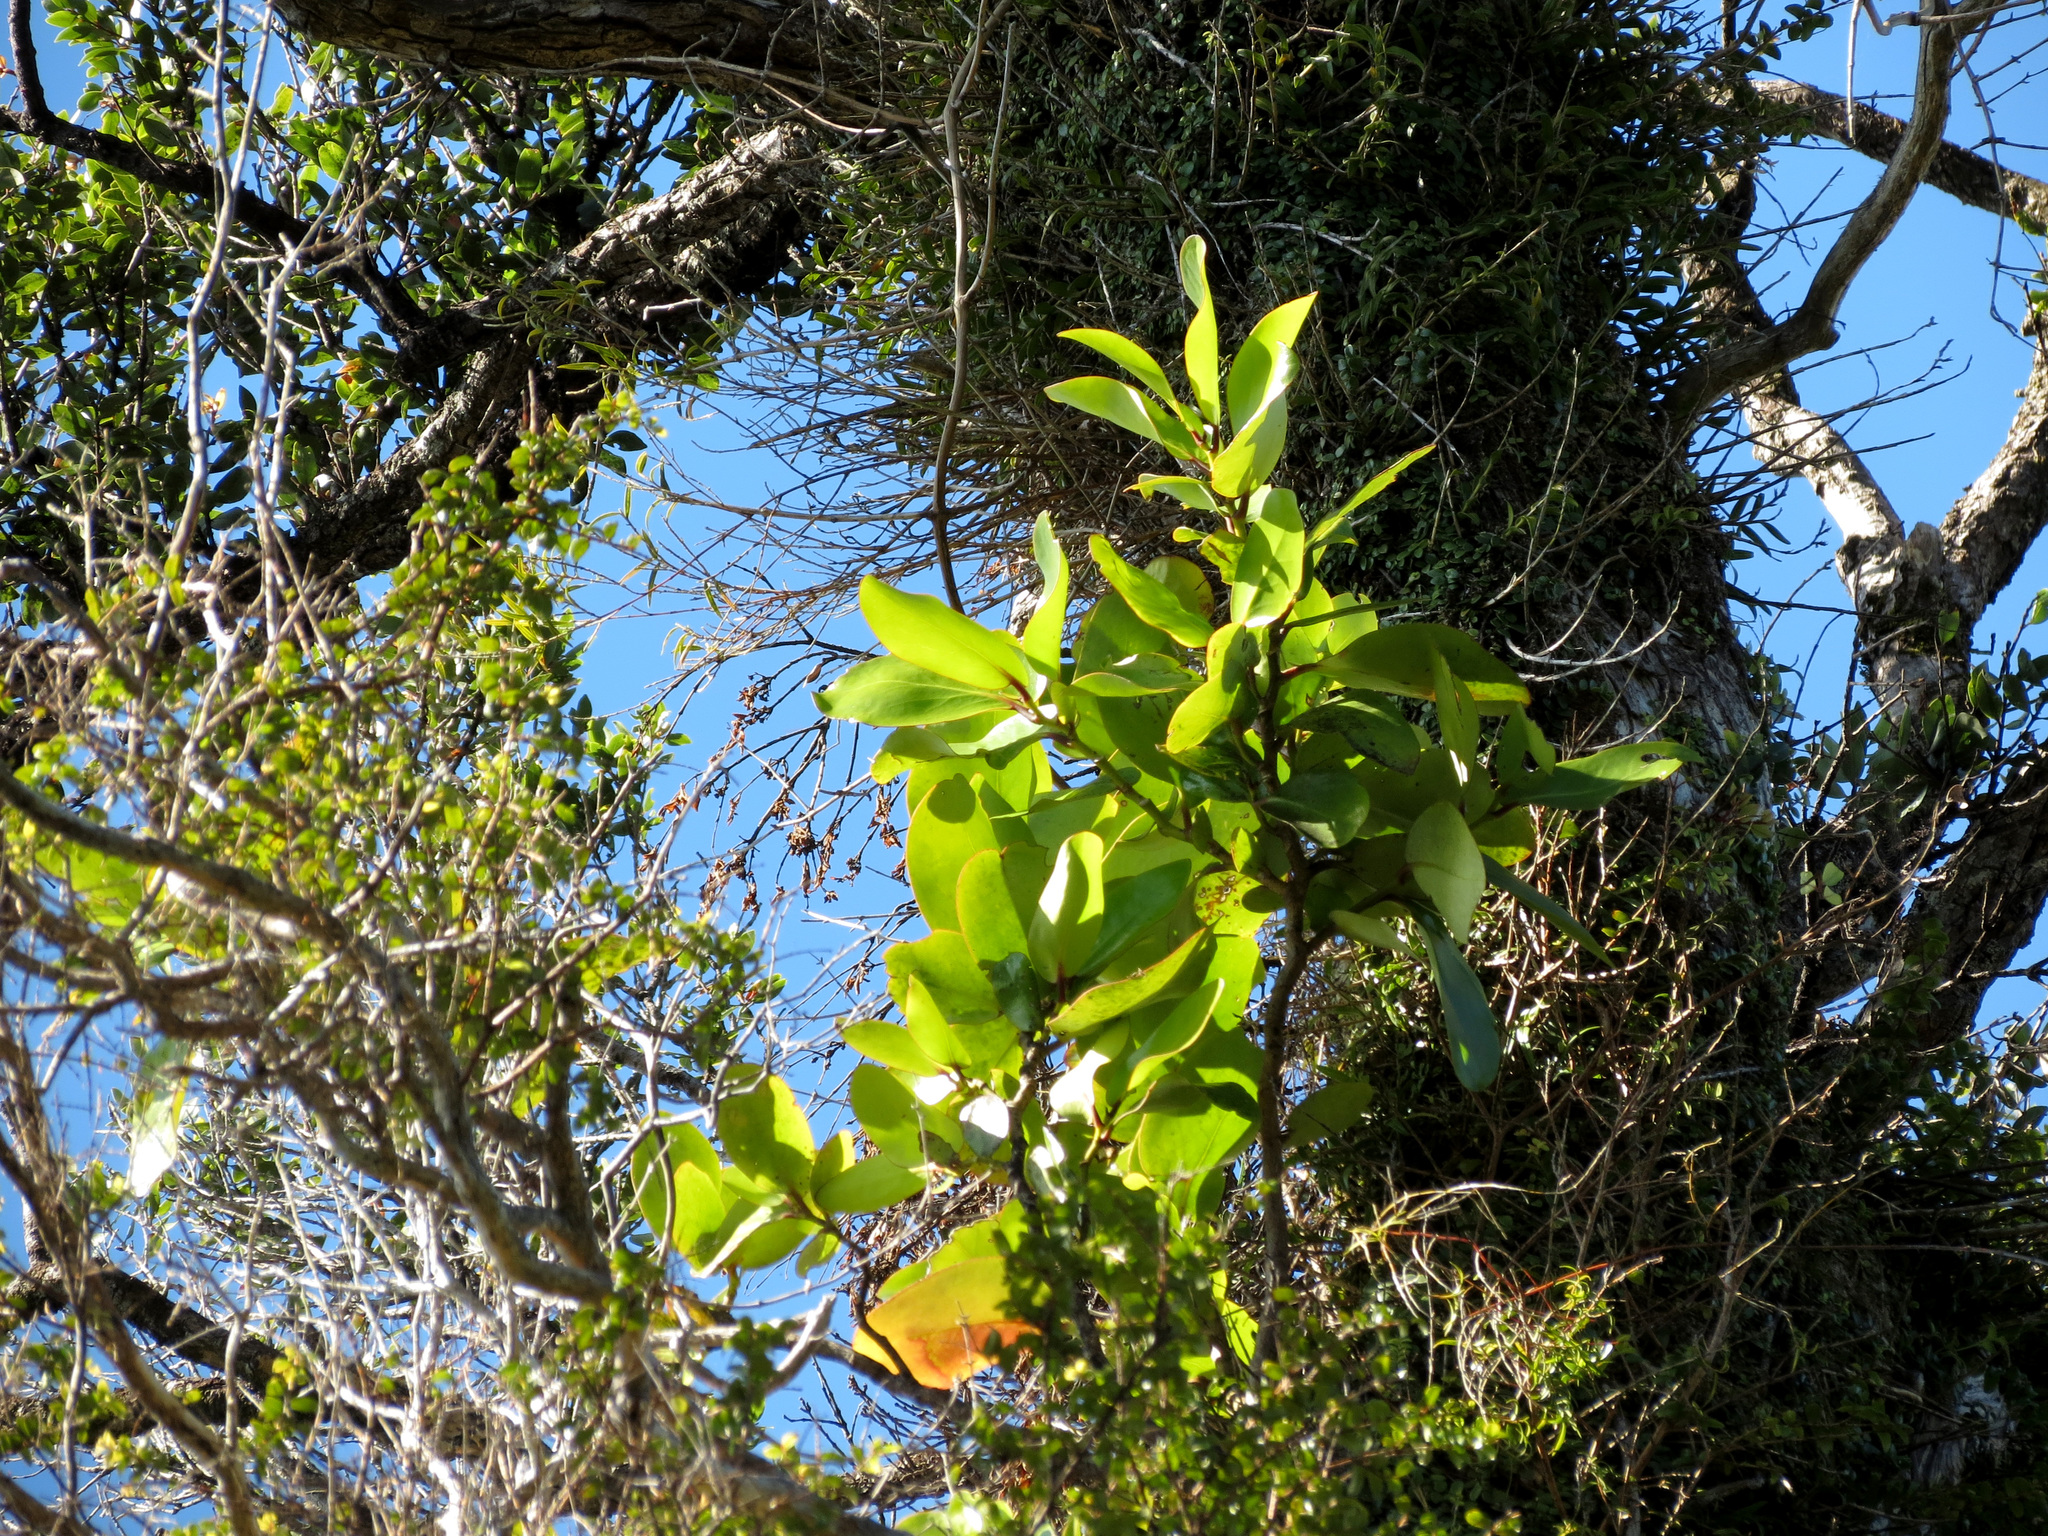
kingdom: Plantae
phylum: Tracheophyta
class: Magnoliopsida
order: Santalales
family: Loranthaceae
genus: Ileostylus
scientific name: Ileostylus micranthus
